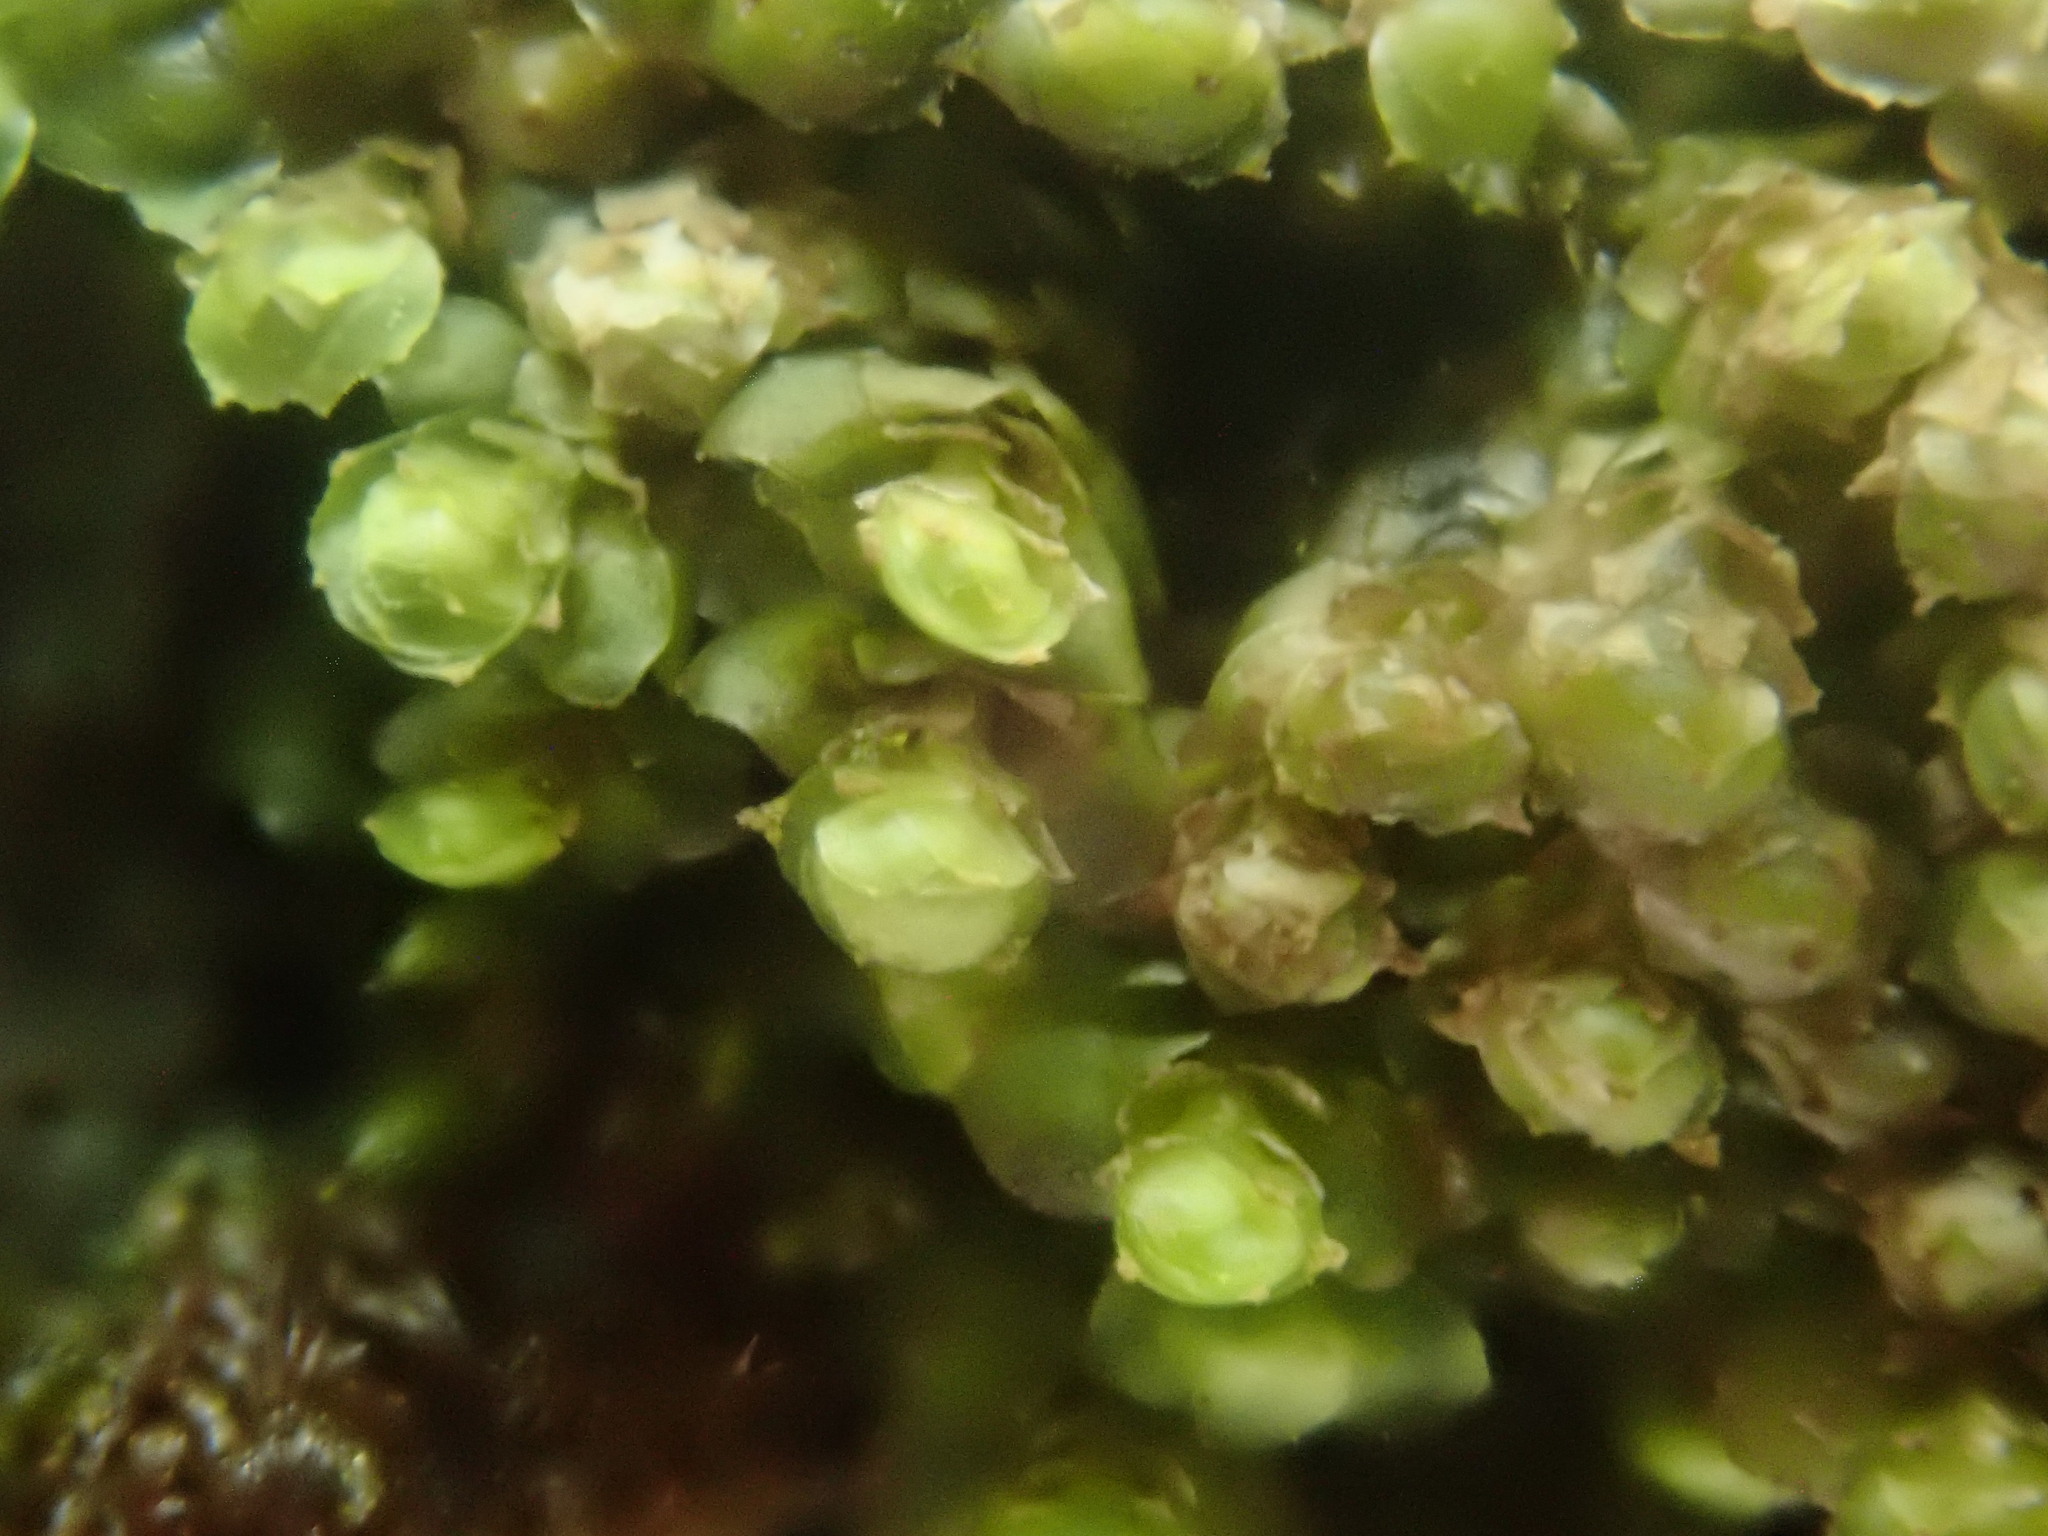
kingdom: Plantae
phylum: Marchantiophyta
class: Jungermanniopsida
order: Jungermanniales
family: Scapaniaceae
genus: Scapania
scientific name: Scapania nemorea
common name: Grove earwort
